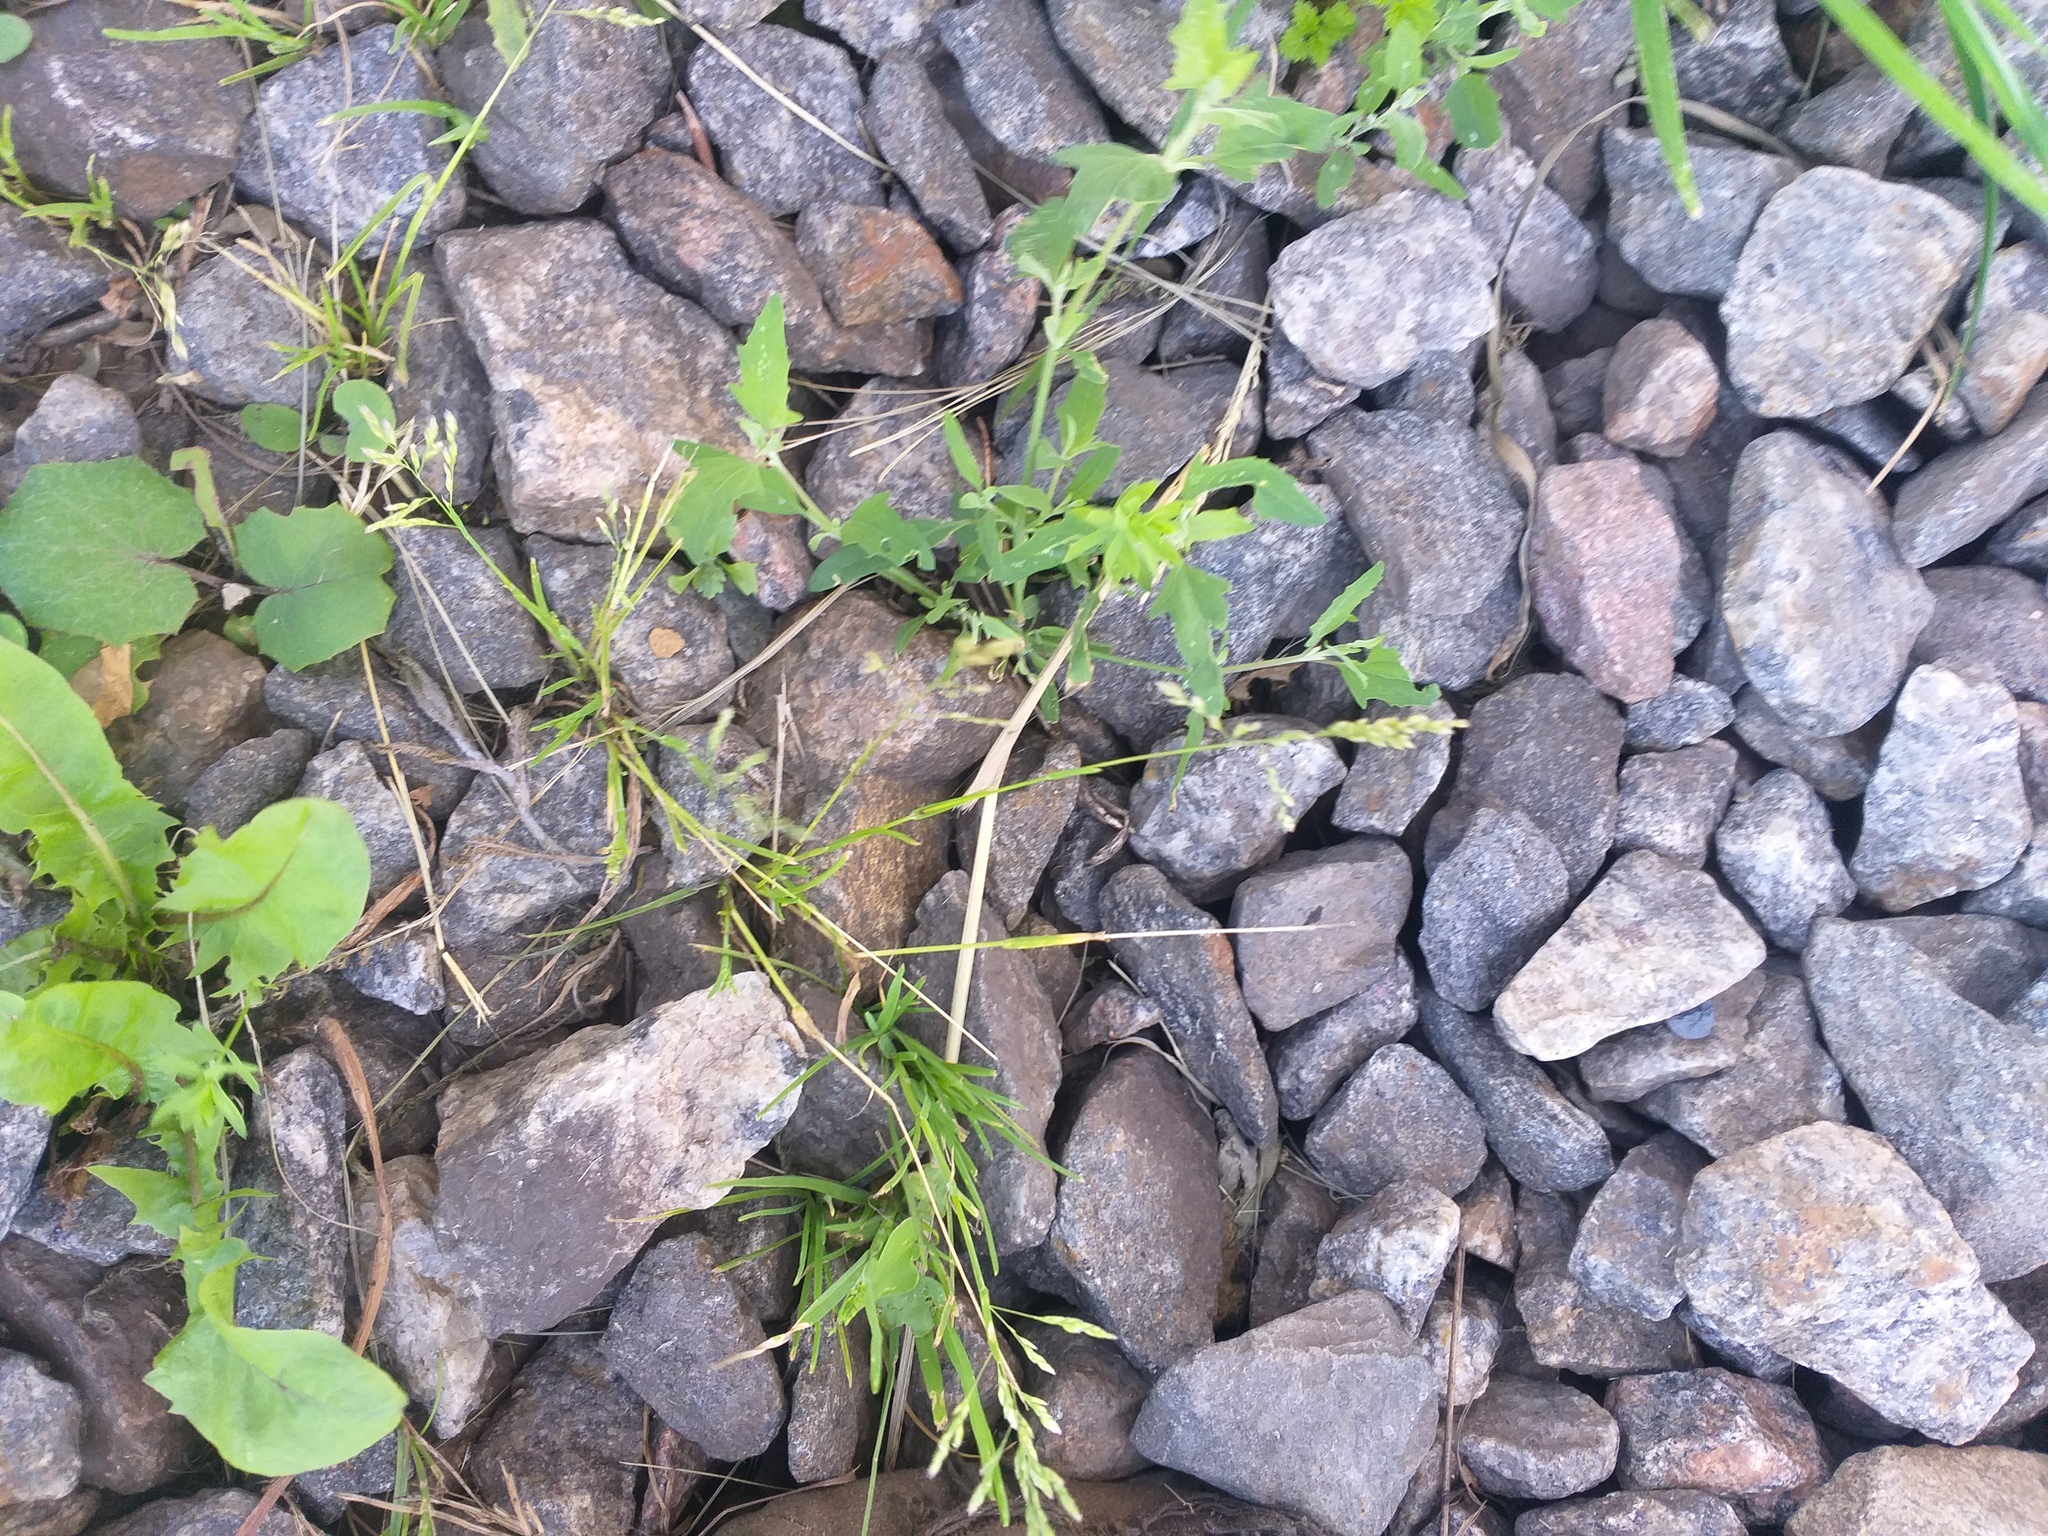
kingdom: Plantae
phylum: Tracheophyta
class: Liliopsida
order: Poales
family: Poaceae
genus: Poa
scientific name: Poa annua
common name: Annual bluegrass
